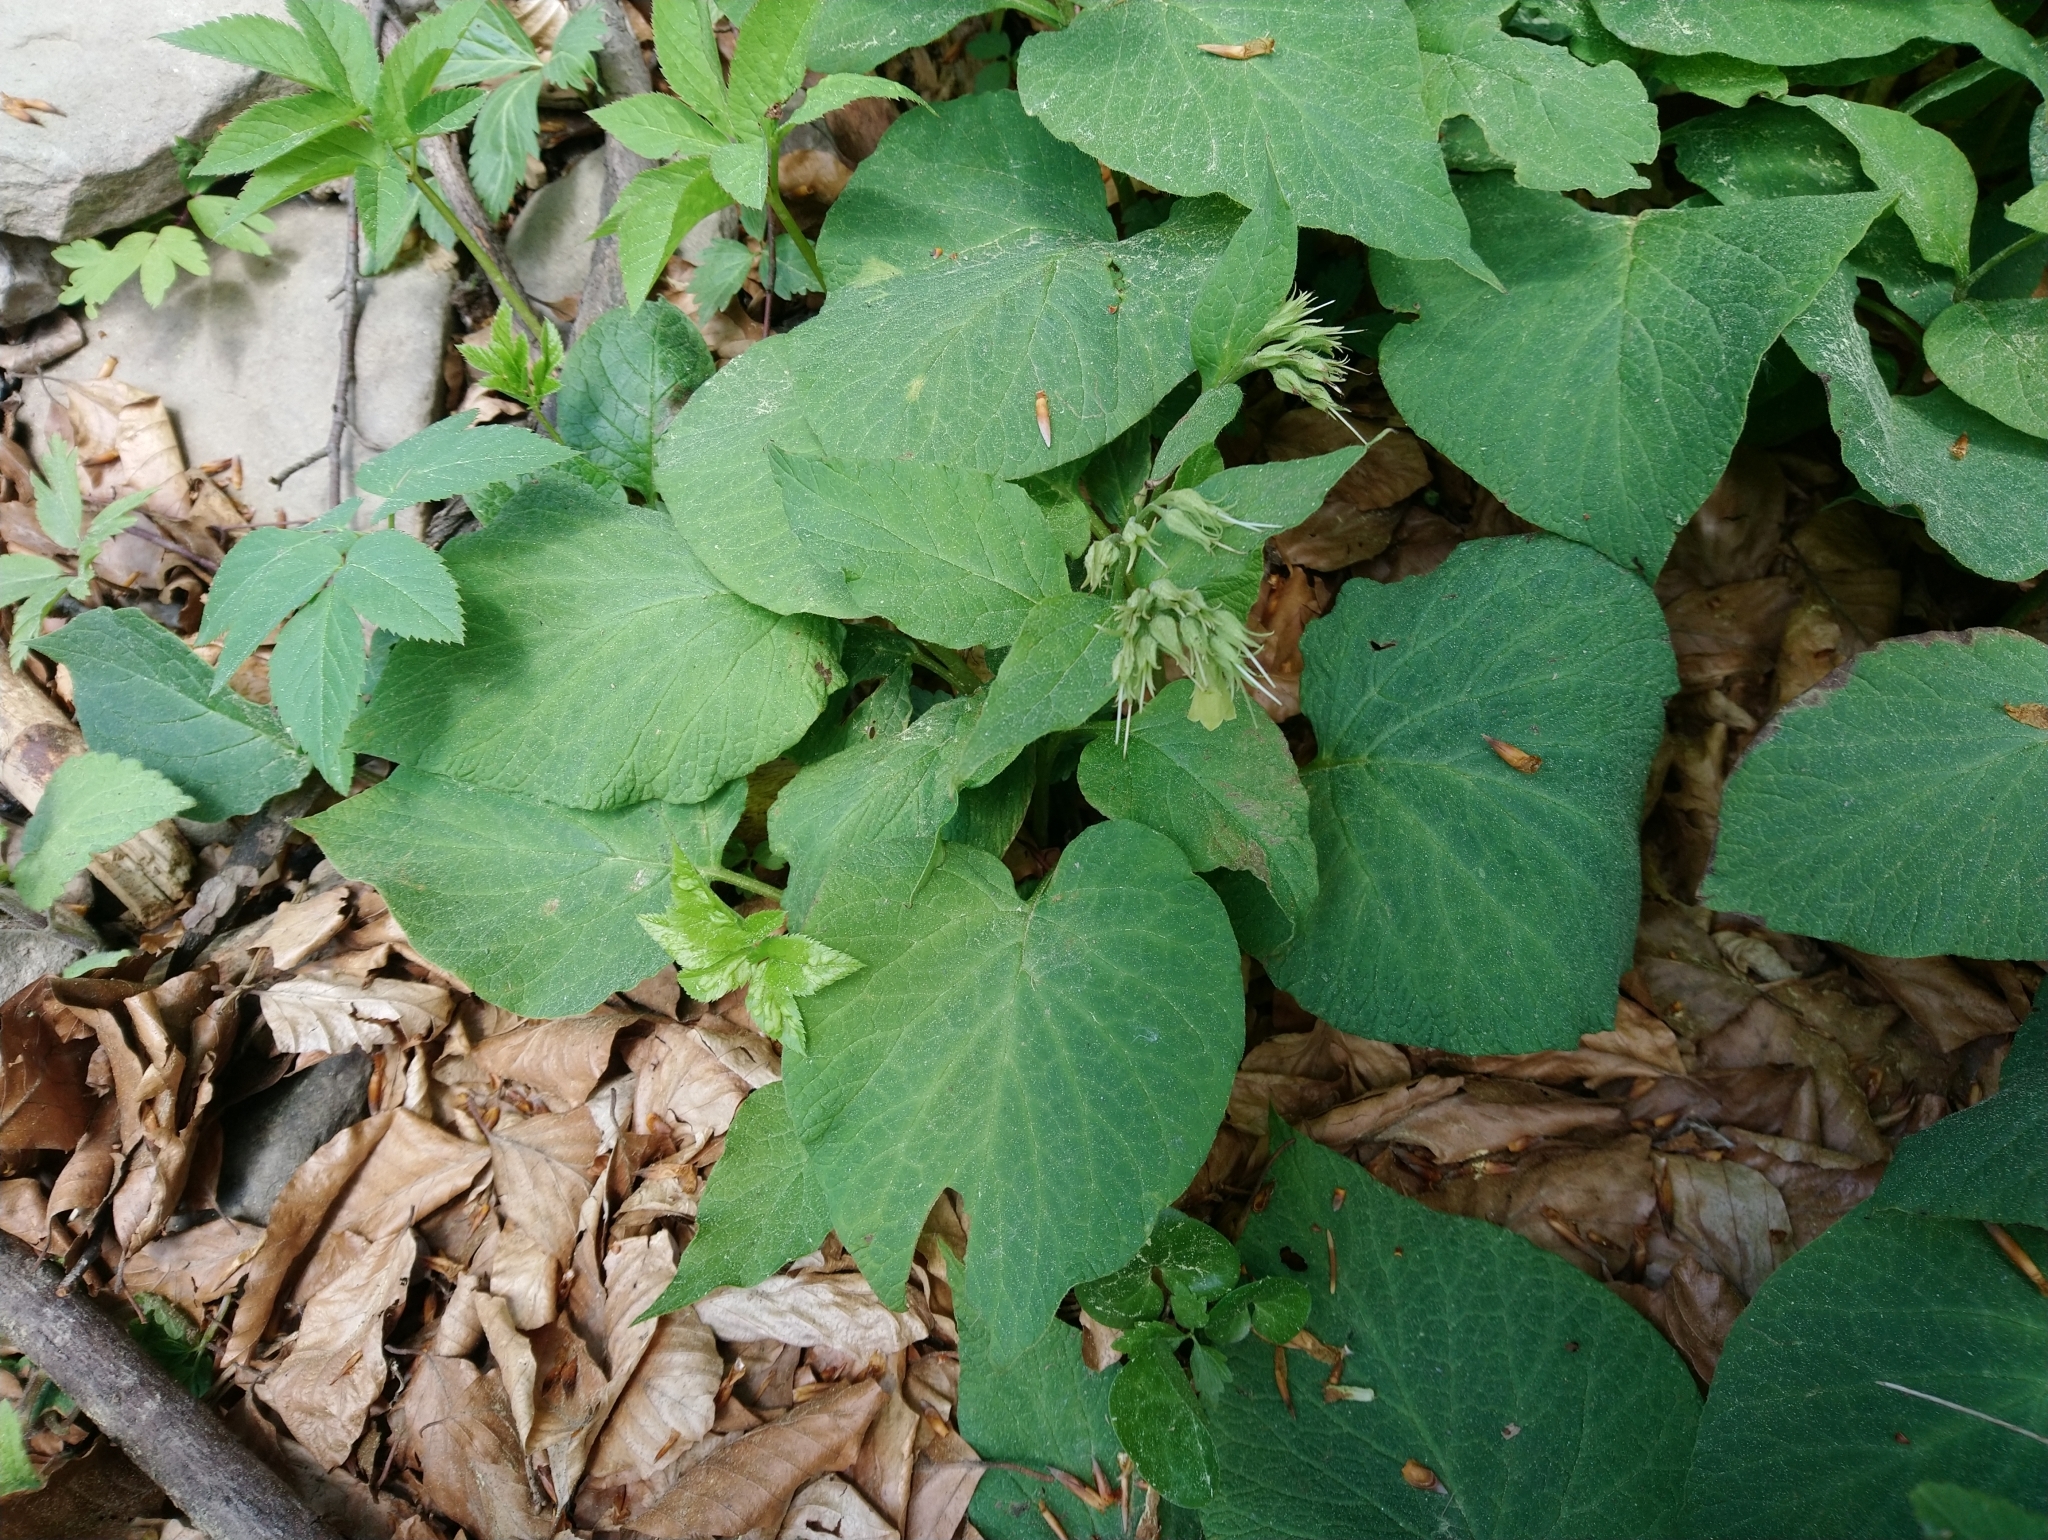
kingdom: Plantae
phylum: Tracheophyta
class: Magnoliopsida
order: Boraginales
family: Boraginaceae
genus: Symphytum
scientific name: Symphytum cordatum
